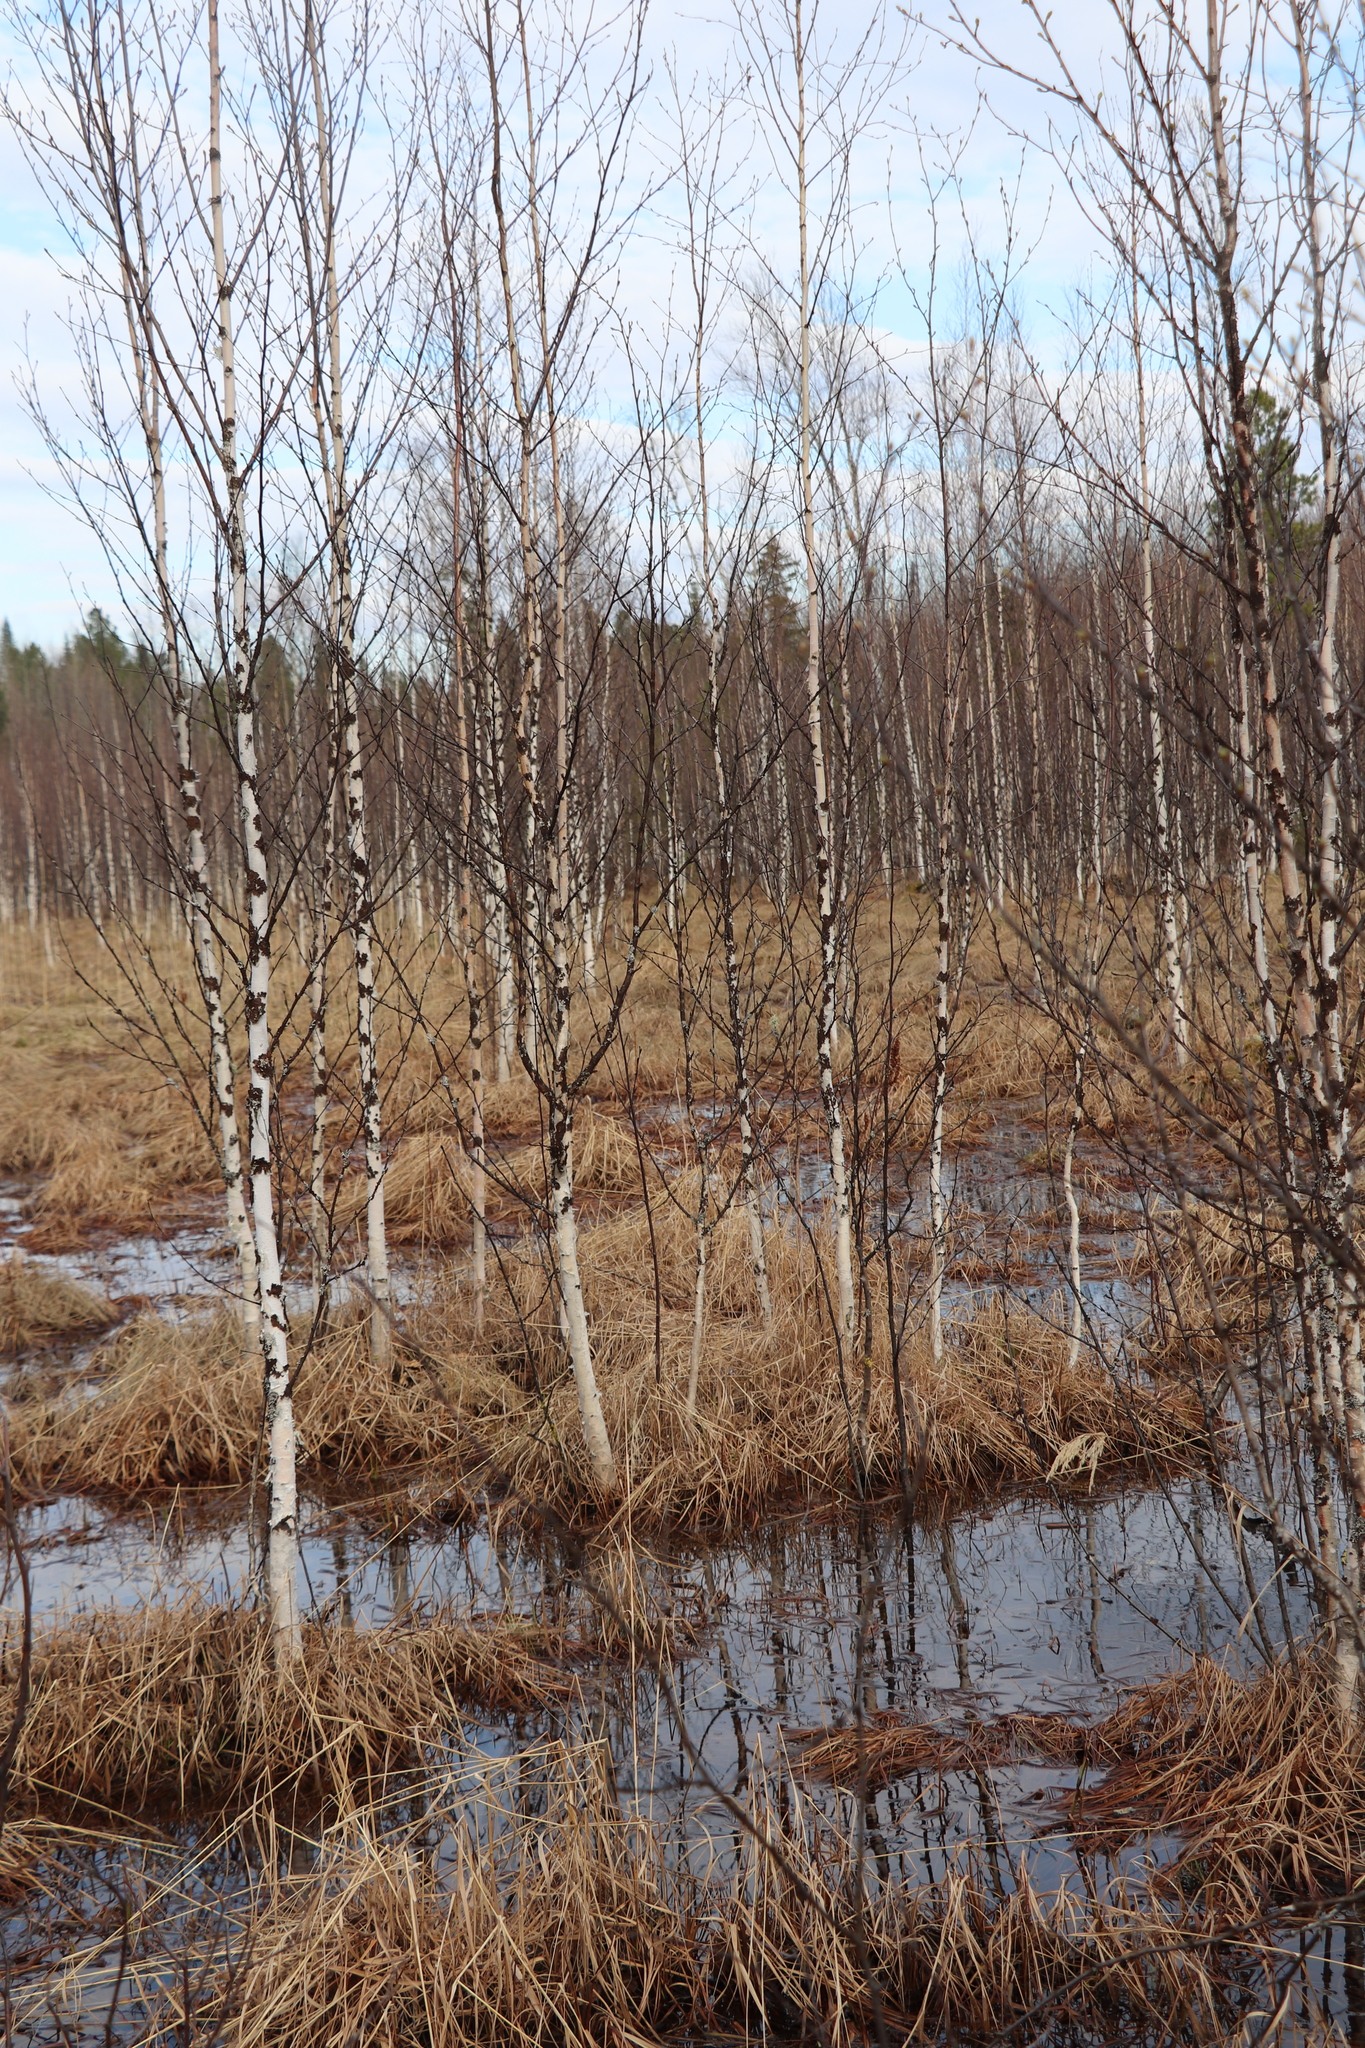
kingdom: Plantae
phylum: Tracheophyta
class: Magnoliopsida
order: Fagales
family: Betulaceae
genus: Betula
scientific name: Betula pubescens
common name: Downy birch
